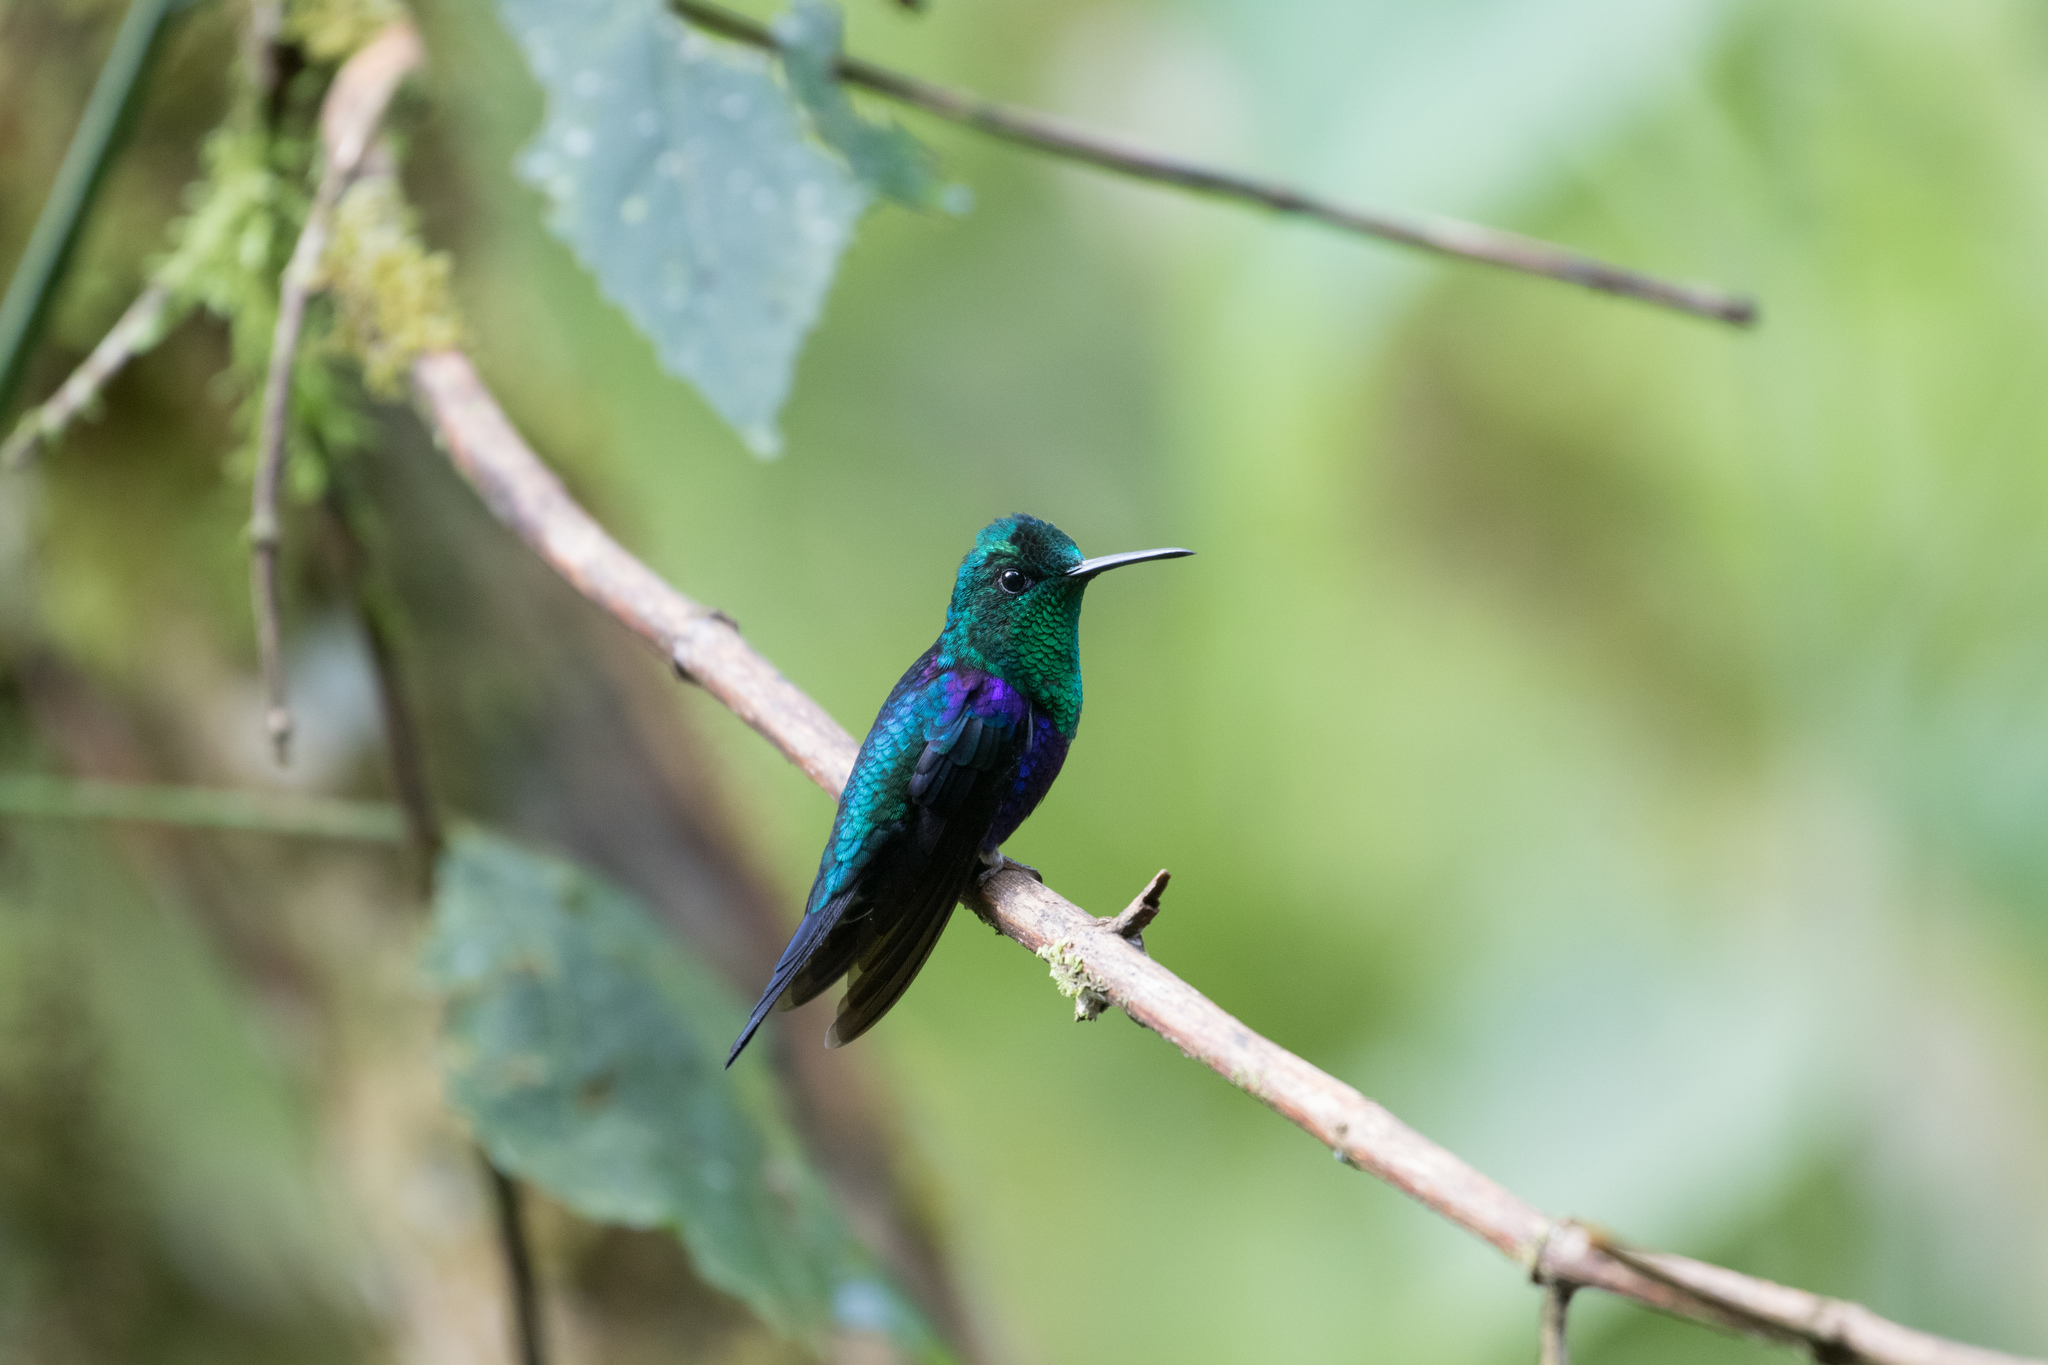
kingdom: Animalia
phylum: Chordata
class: Aves
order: Apodiformes
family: Trochilidae
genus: Thalurania
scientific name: Thalurania colombica
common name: Crowned woodnymph
